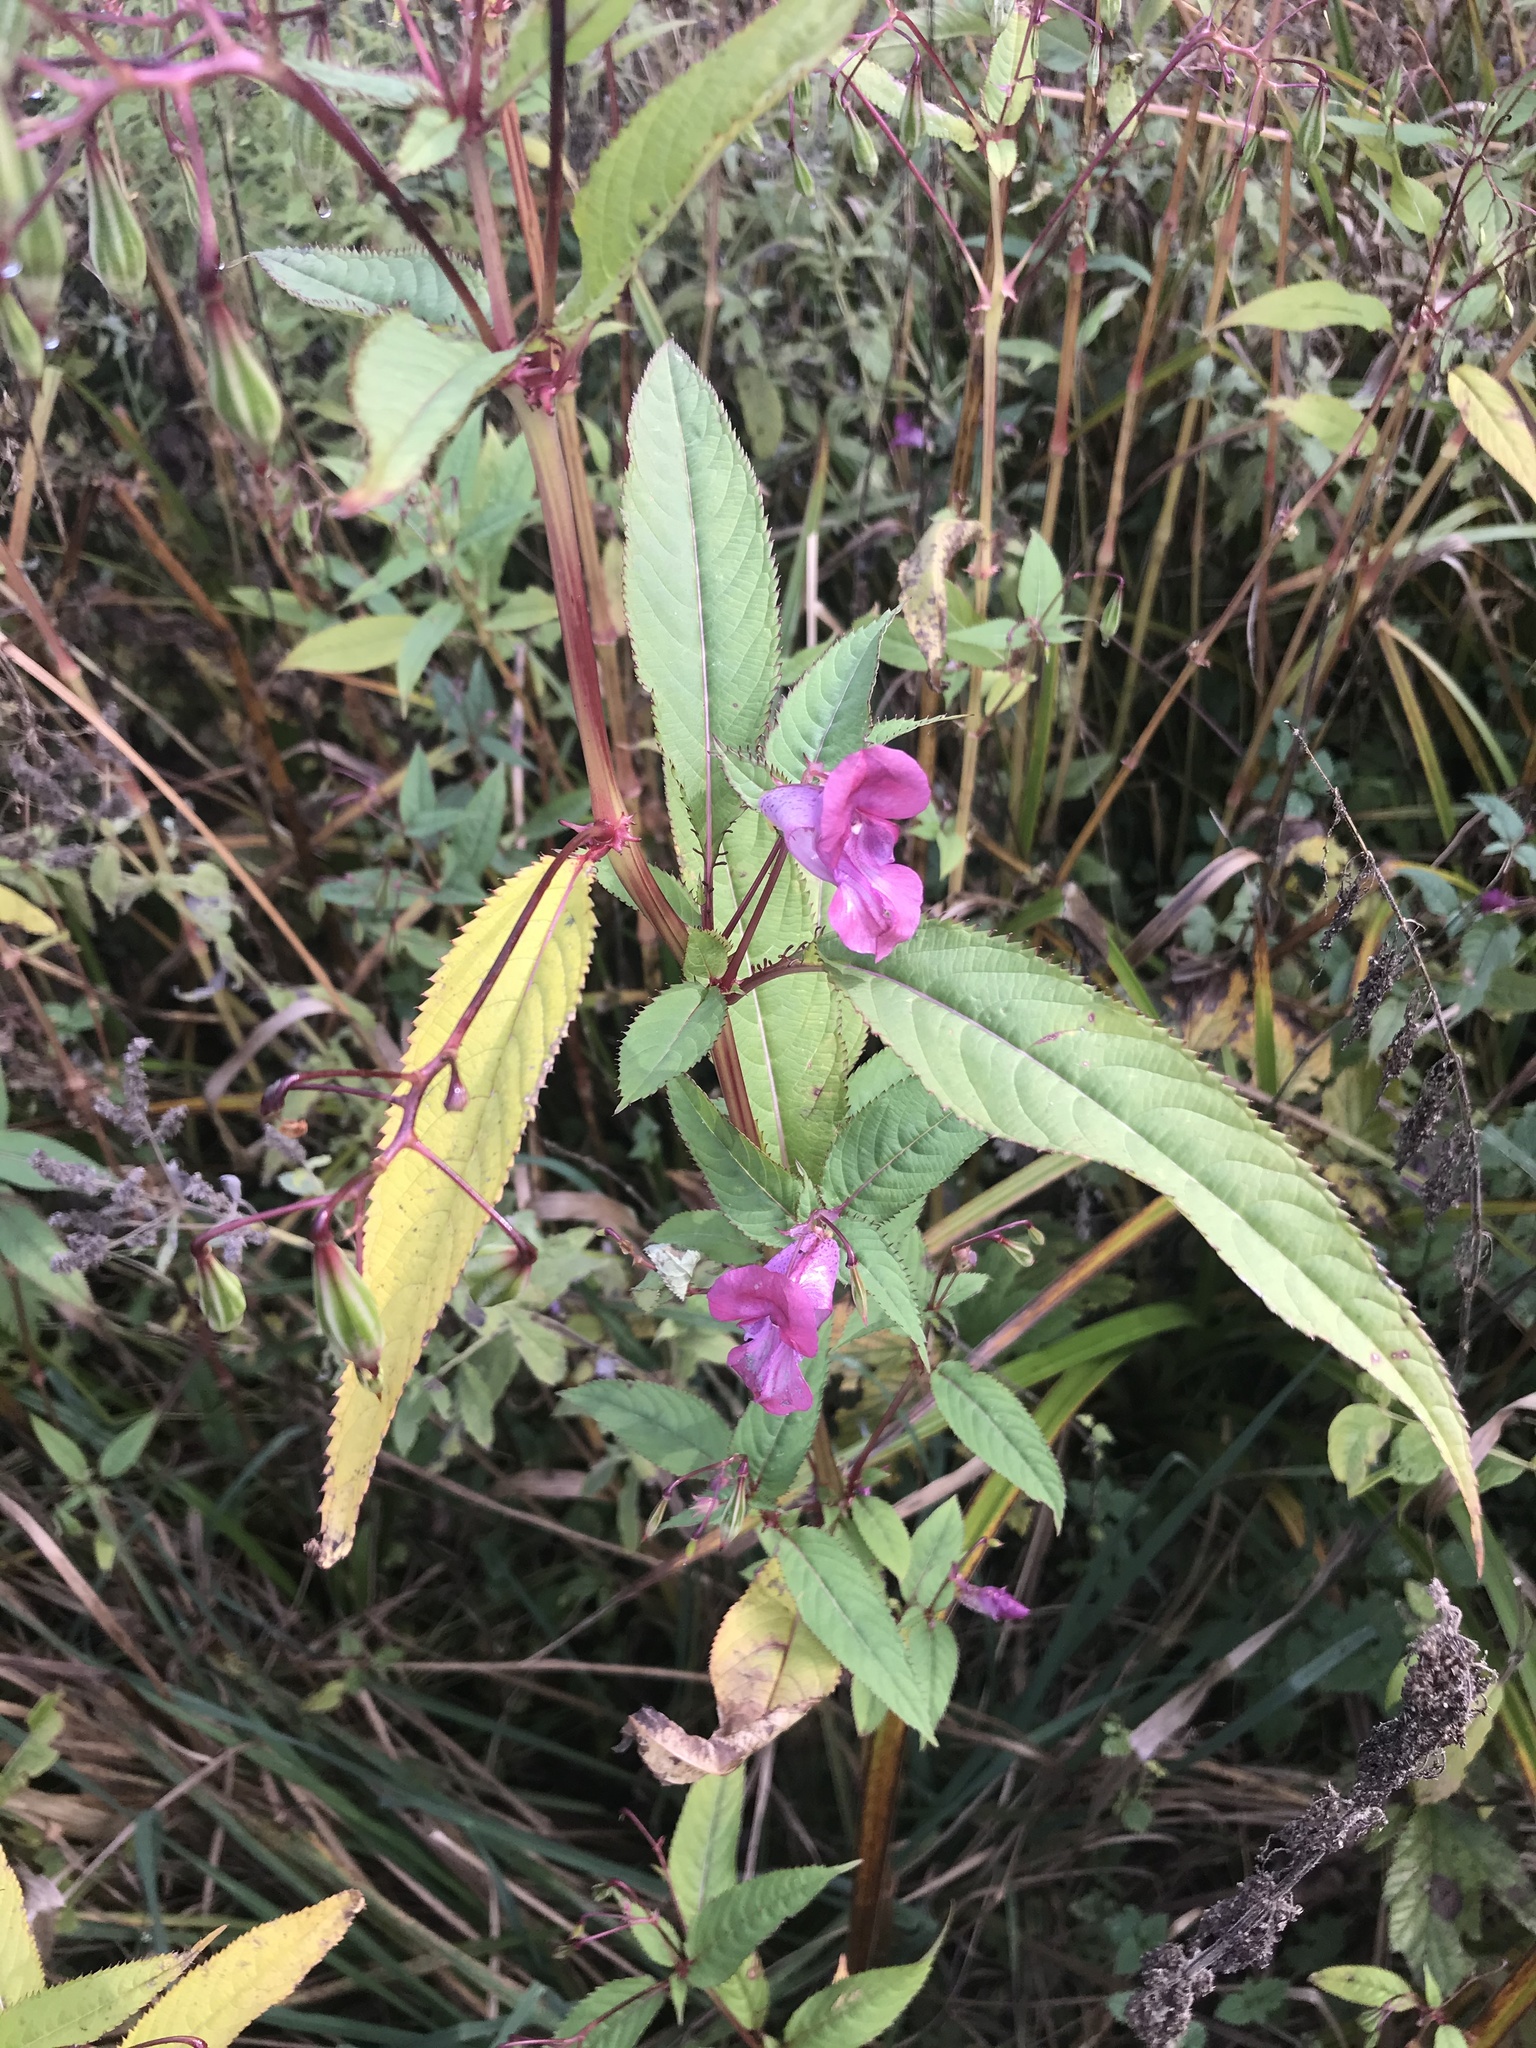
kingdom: Plantae
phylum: Tracheophyta
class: Magnoliopsida
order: Ericales
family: Balsaminaceae
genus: Impatiens
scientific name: Impatiens glandulifera
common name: Himalayan balsam
